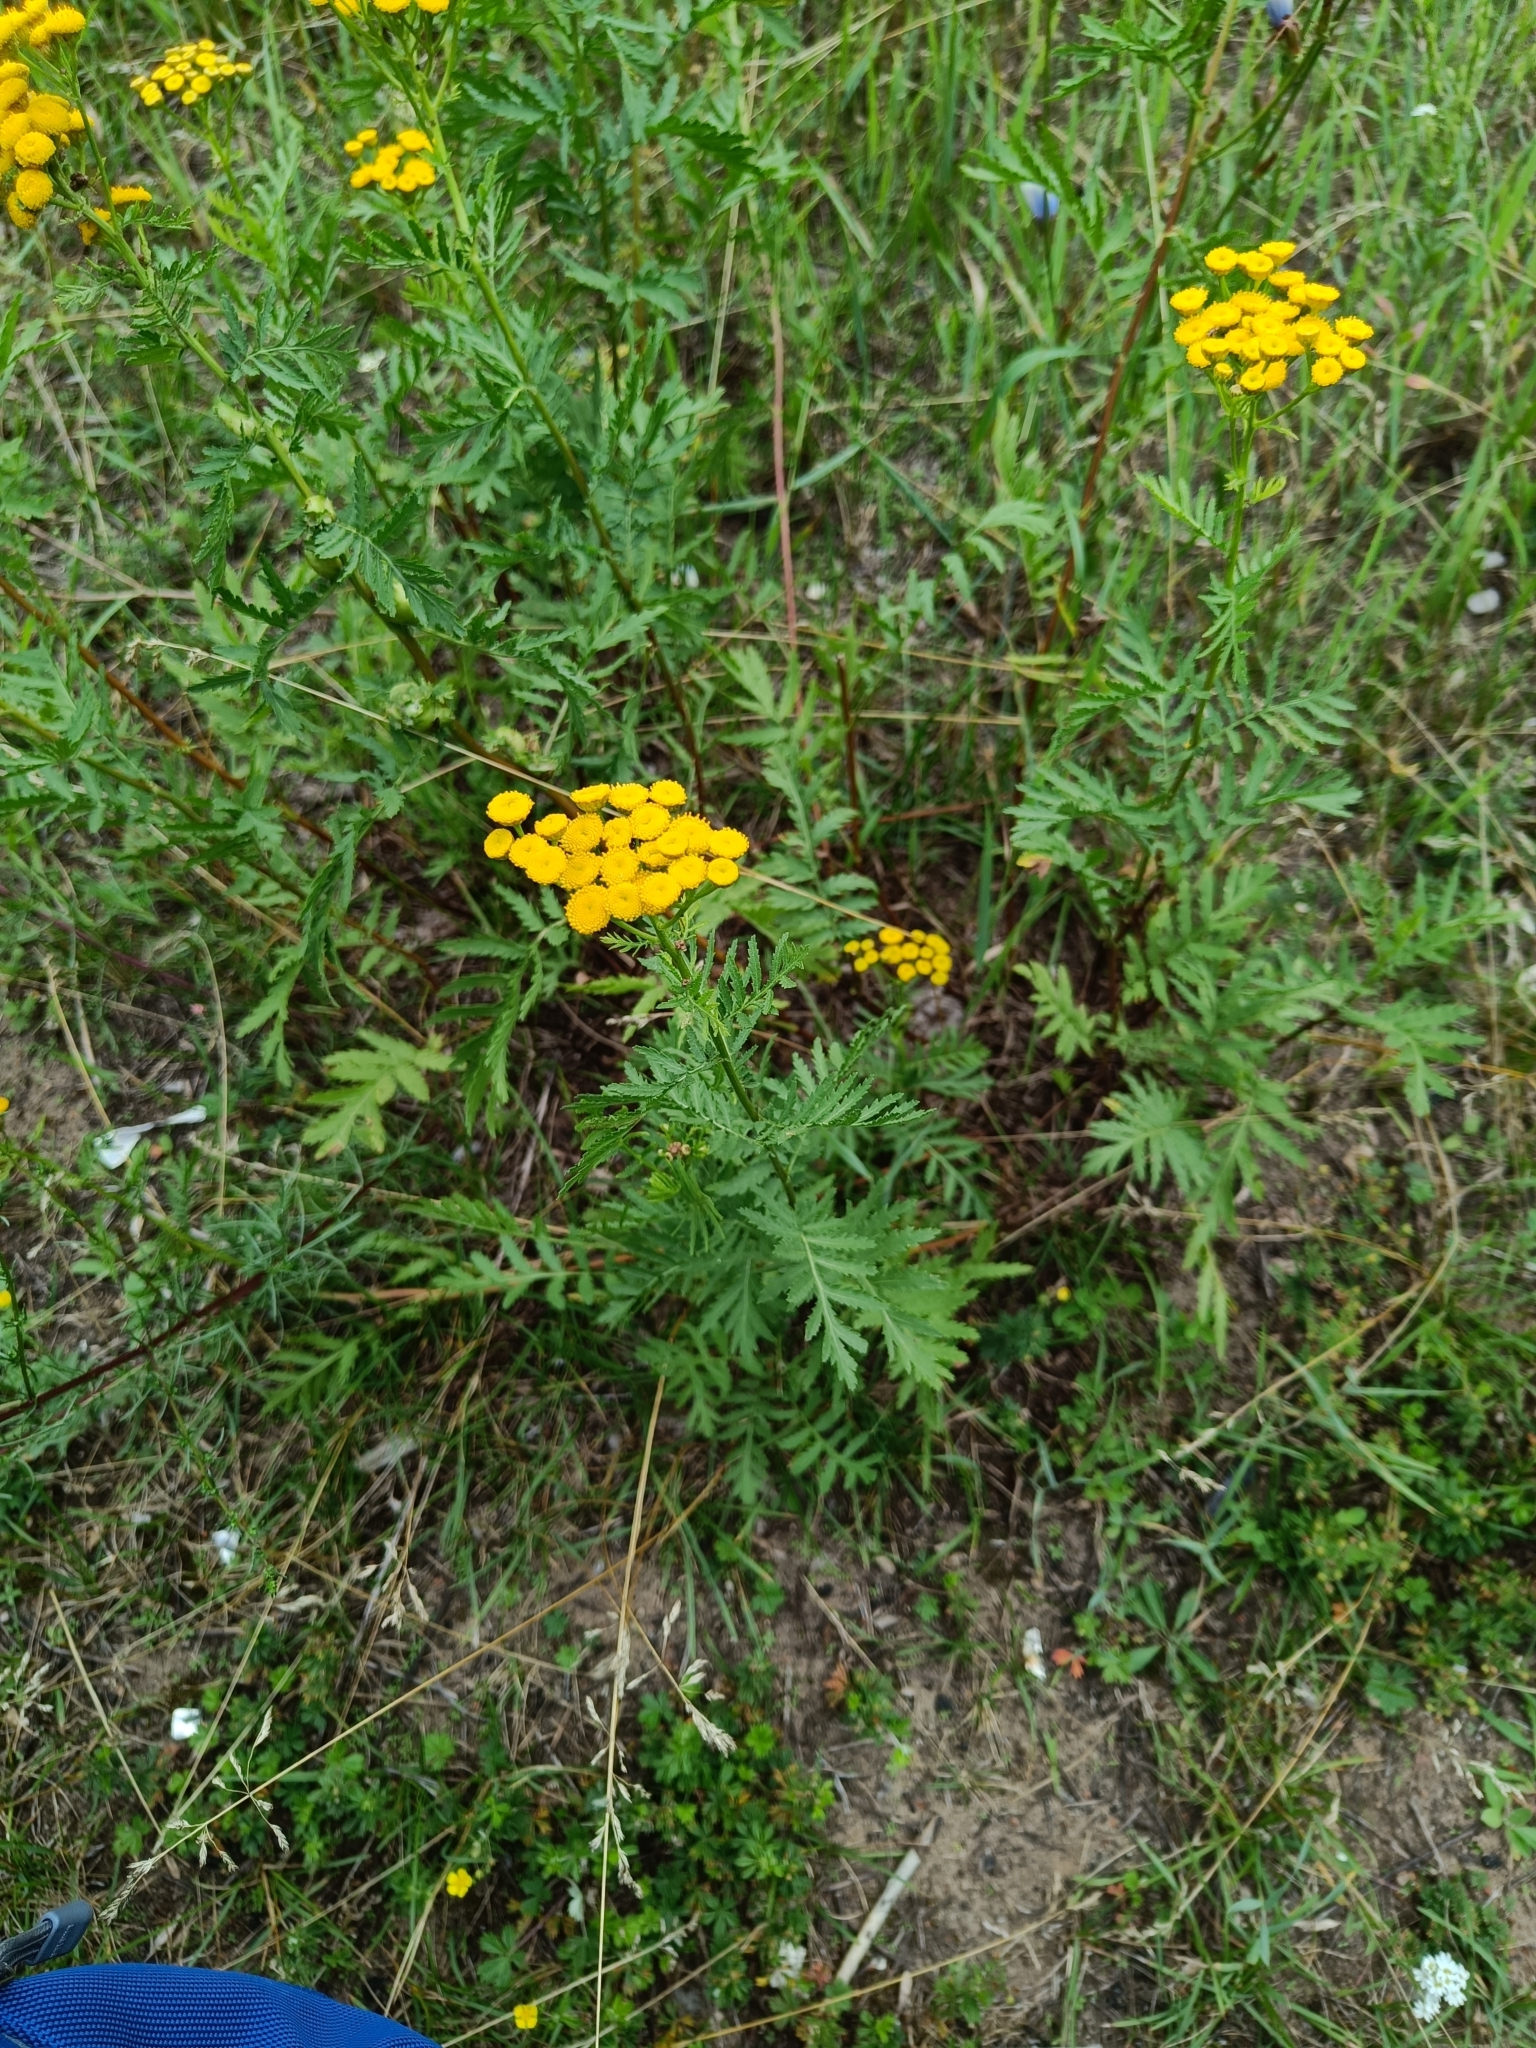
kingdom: Plantae
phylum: Tracheophyta
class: Magnoliopsida
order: Asterales
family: Asteraceae
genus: Tanacetum
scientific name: Tanacetum vulgare
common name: Common tansy
